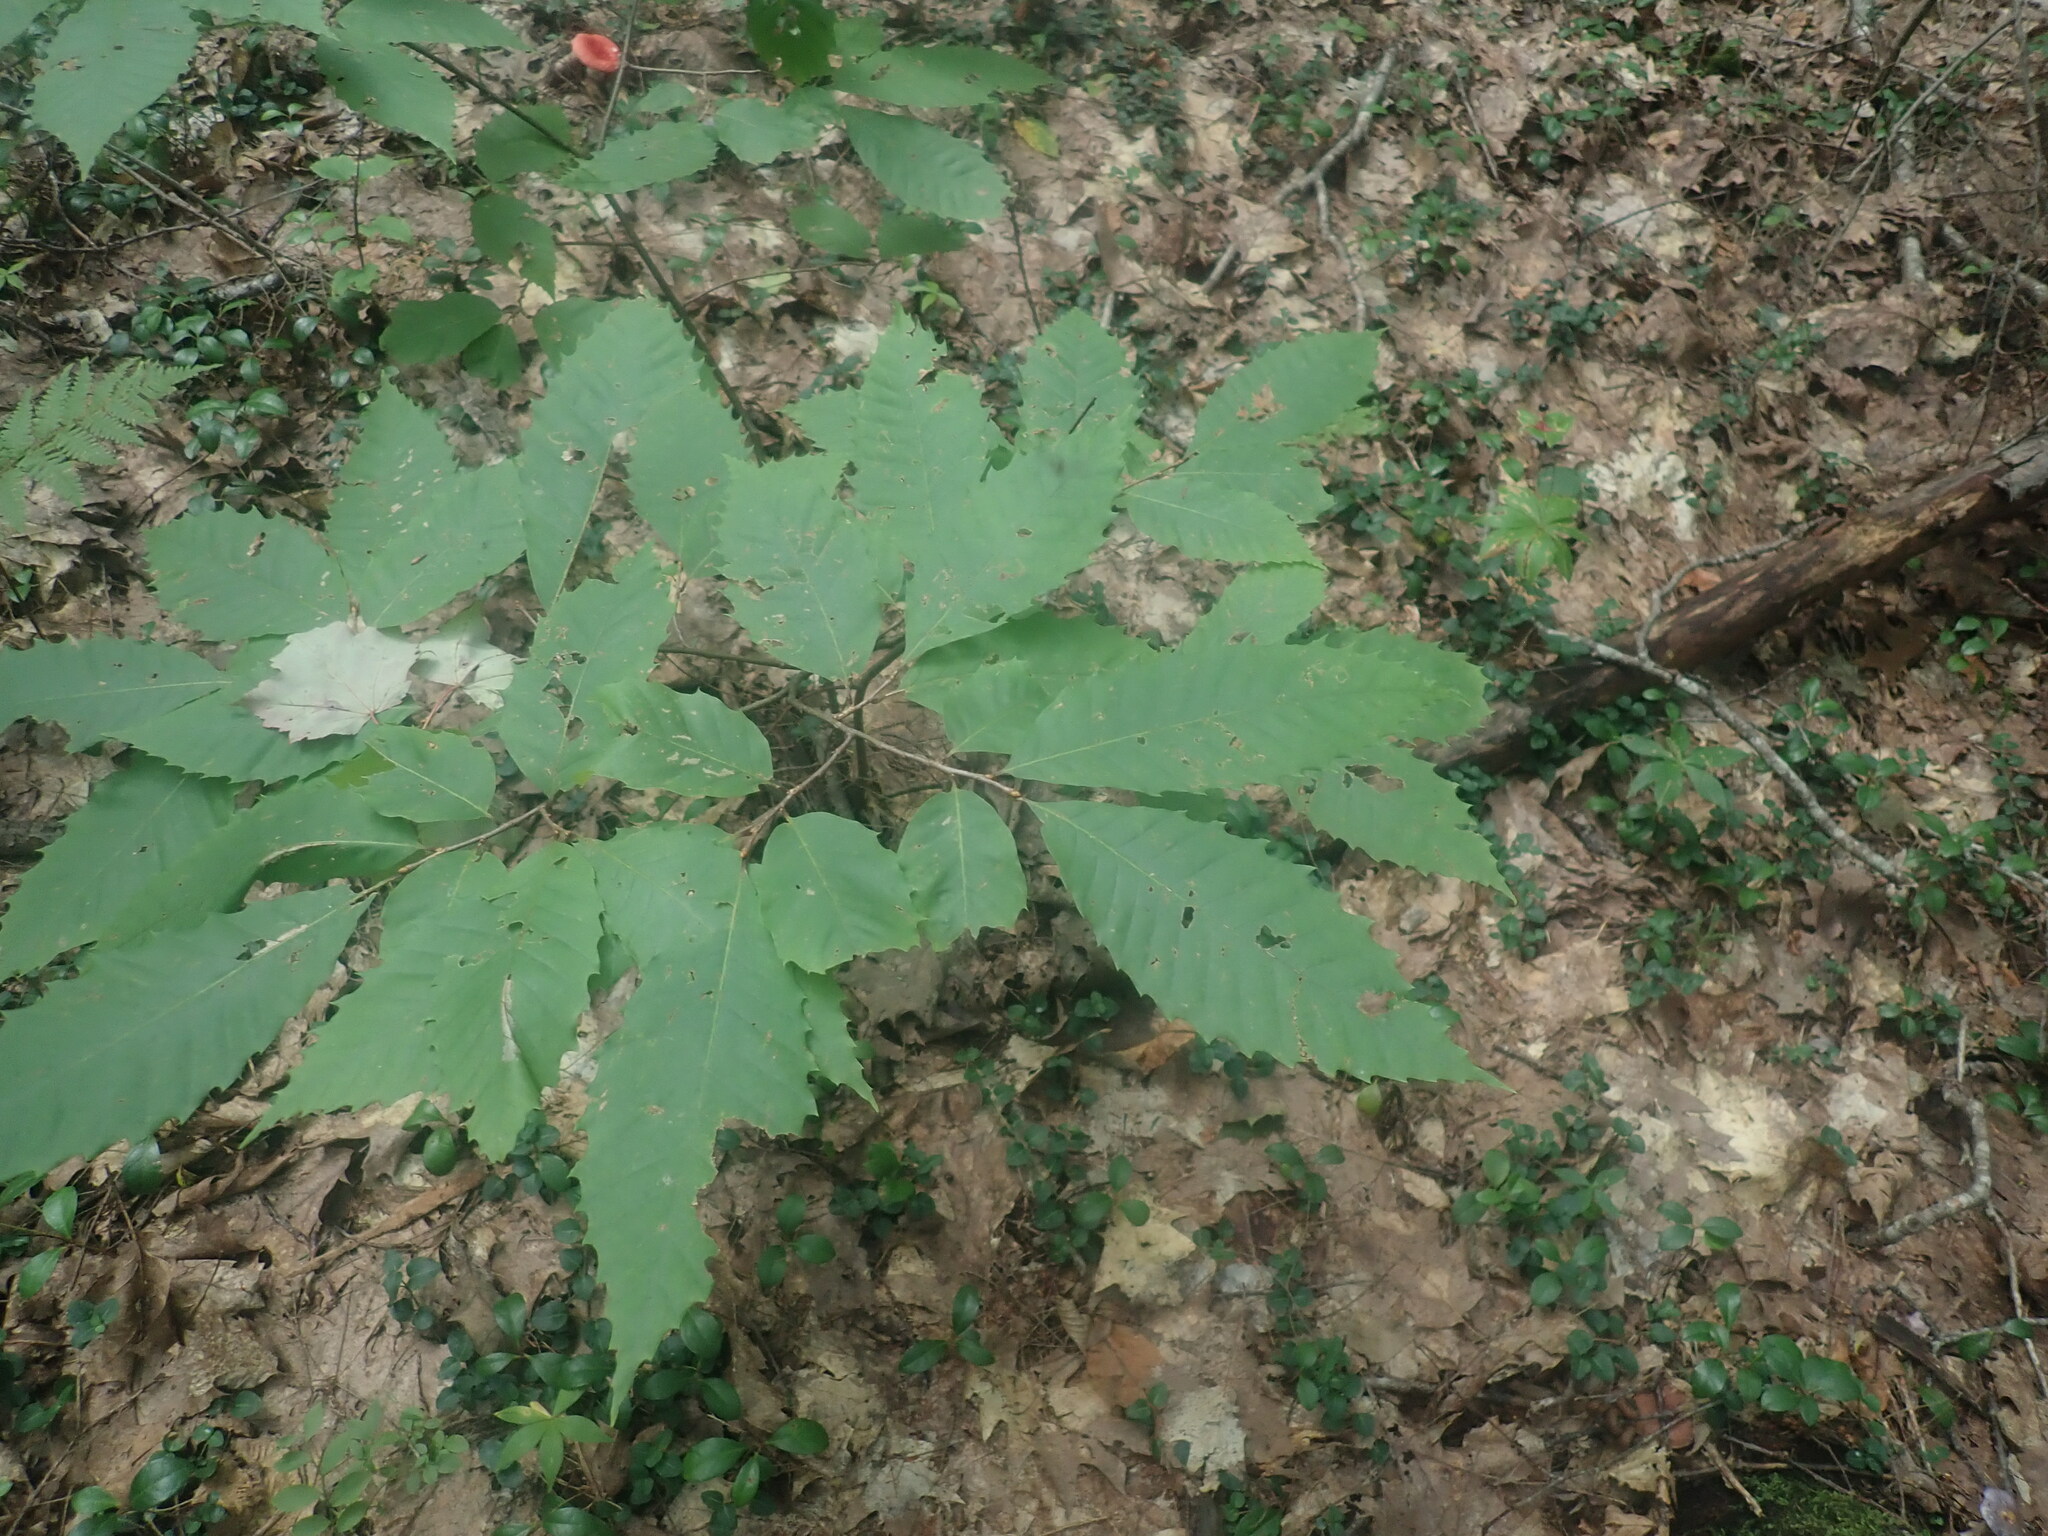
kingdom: Plantae
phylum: Tracheophyta
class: Magnoliopsida
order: Fagales
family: Fagaceae
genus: Castanea
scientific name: Castanea dentata
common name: American chestnut
